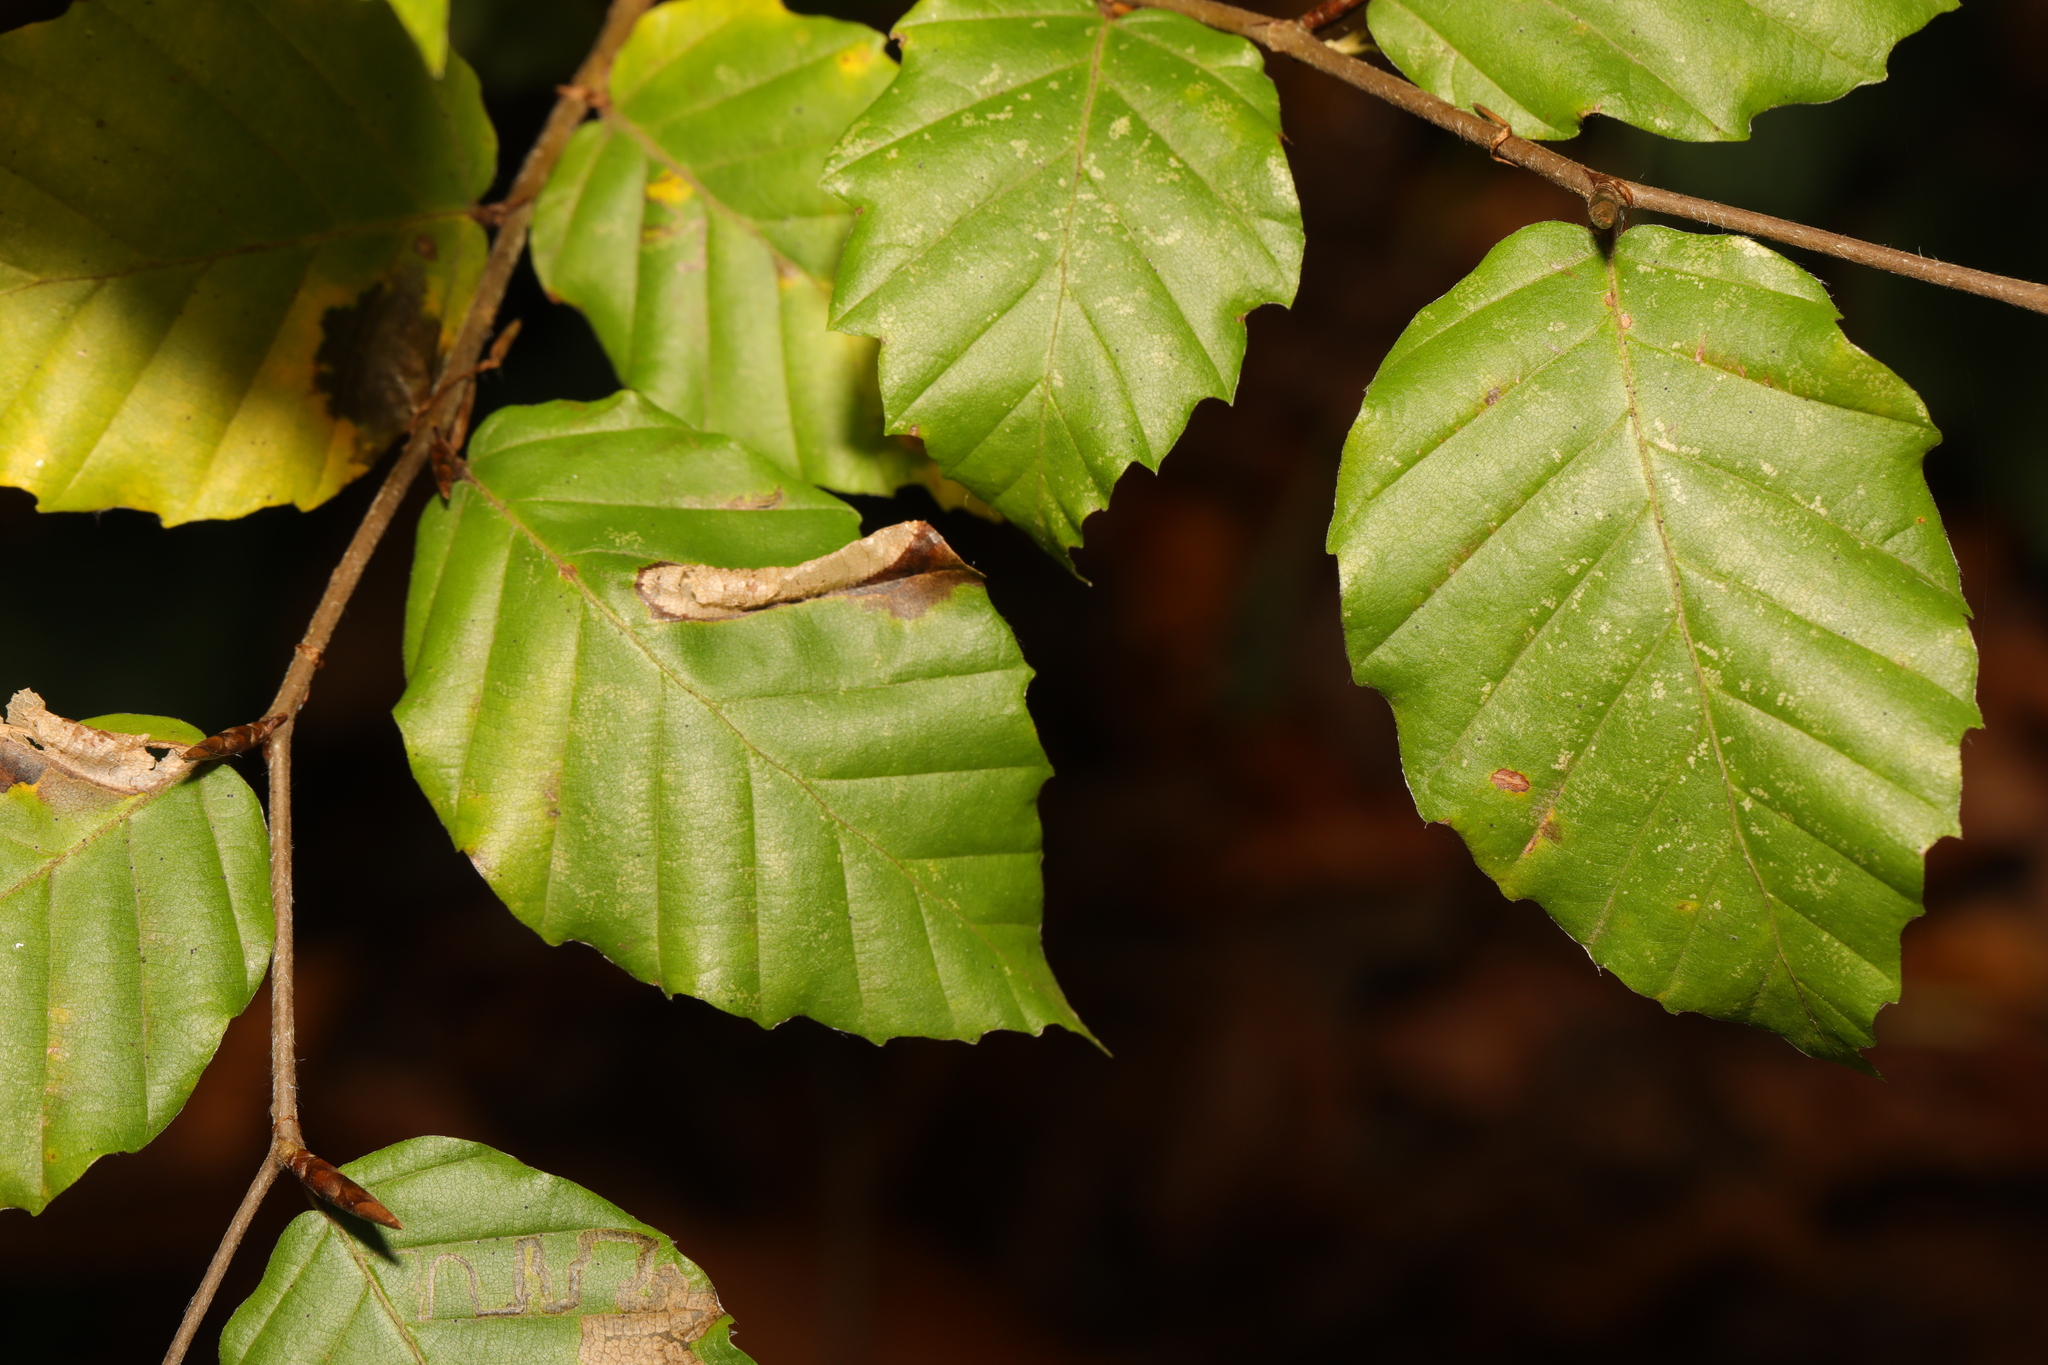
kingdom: Plantae
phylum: Tracheophyta
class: Magnoliopsida
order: Fagales
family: Fagaceae
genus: Fagus
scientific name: Fagus sylvatica
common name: Beech
